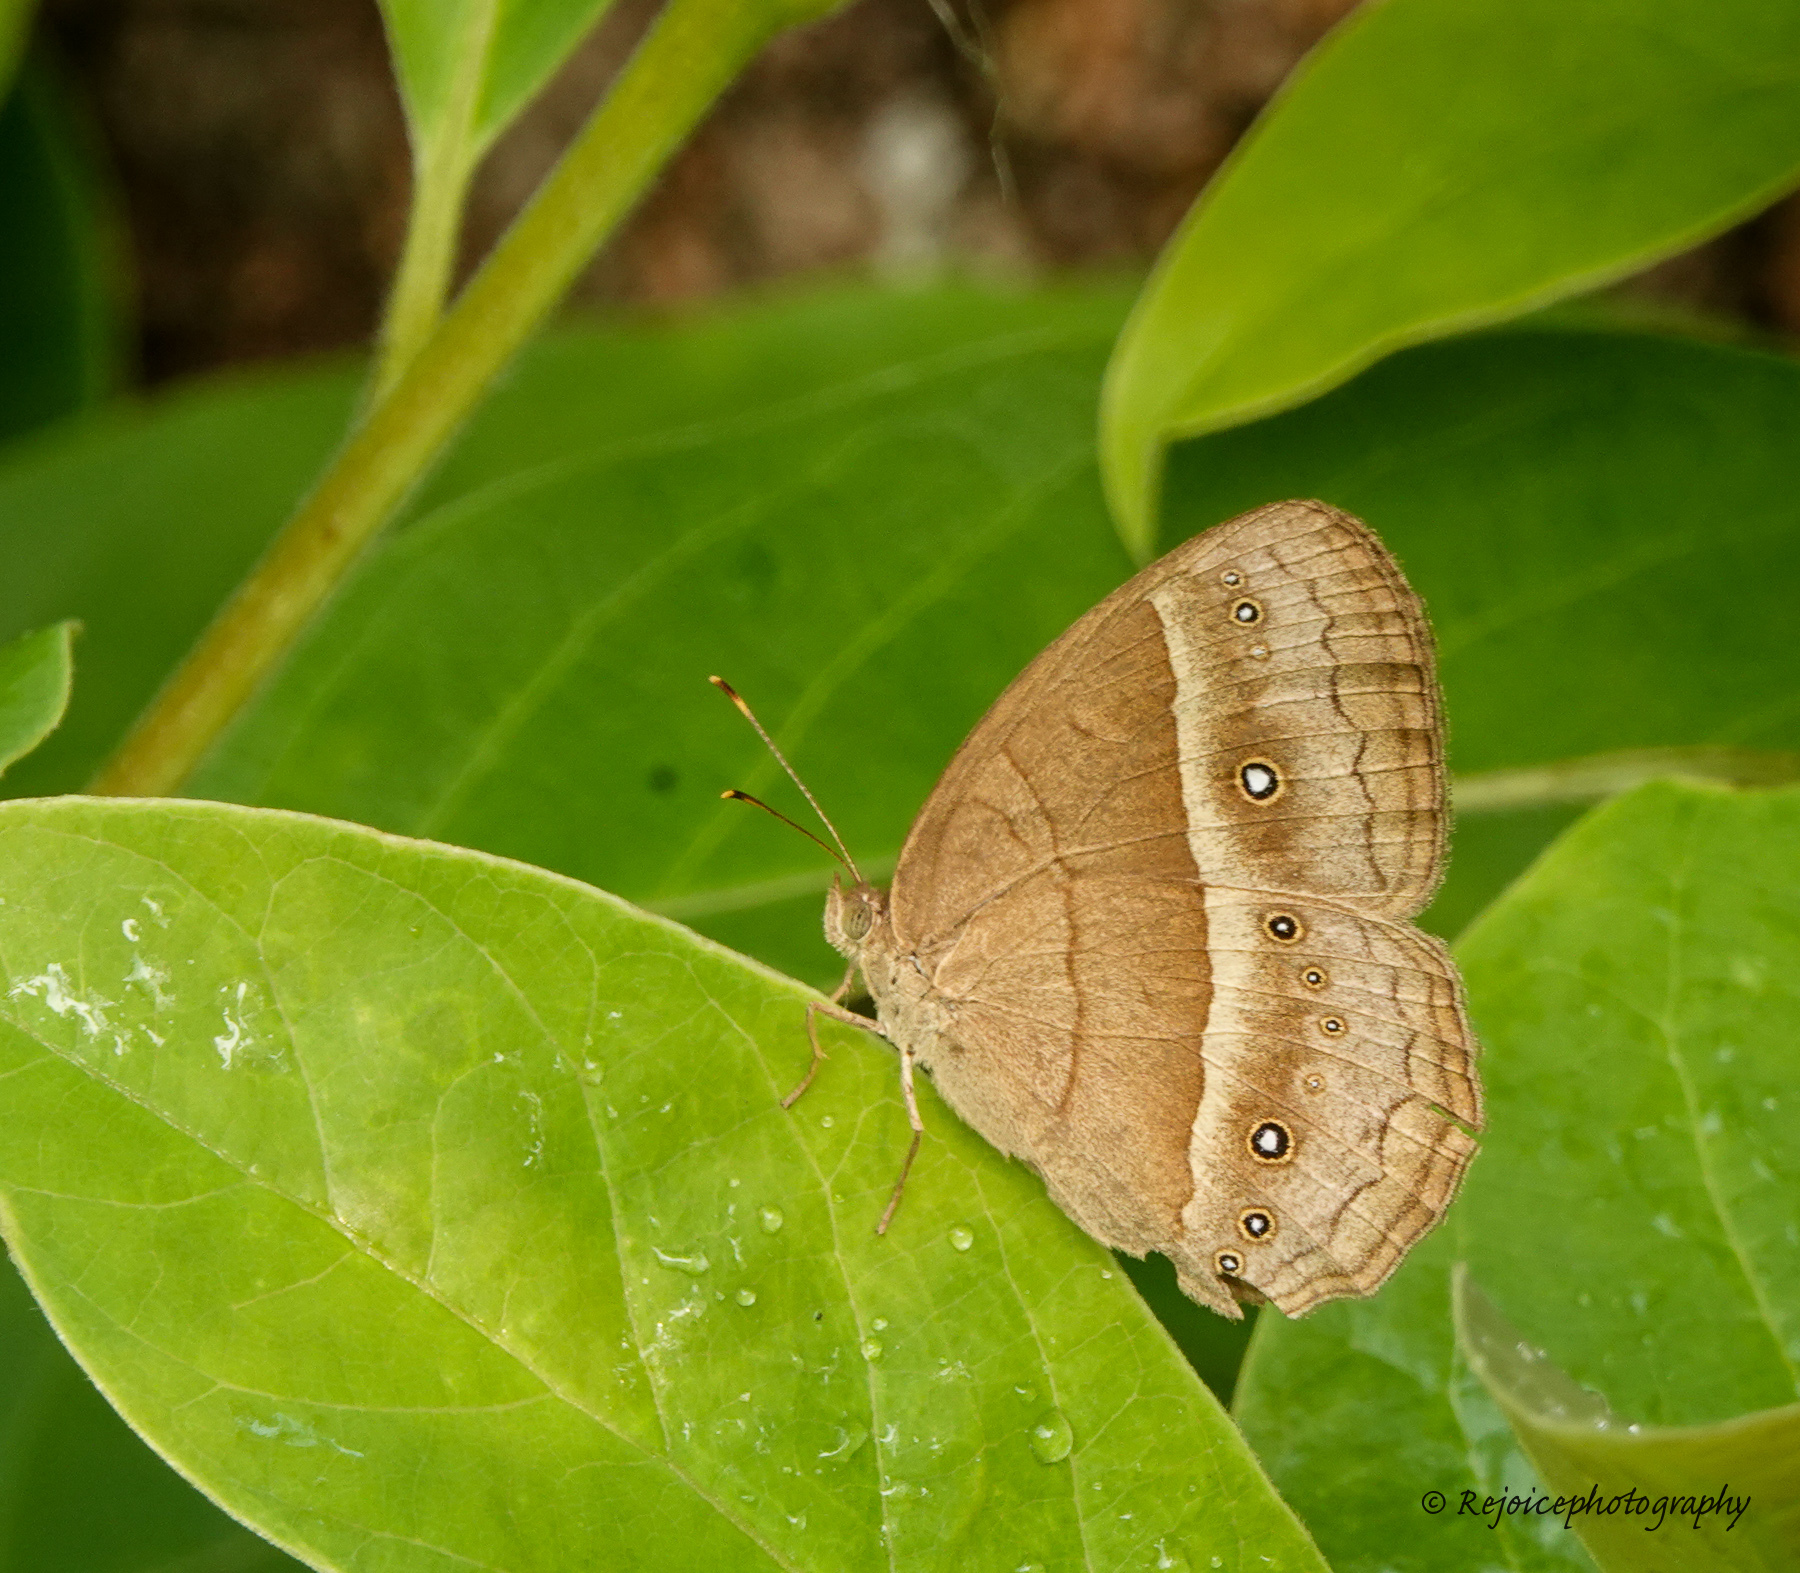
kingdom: Animalia
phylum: Arthropoda
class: Insecta
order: Lepidoptera
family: Nymphalidae
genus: Mycalesis
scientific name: Mycalesis mineus
